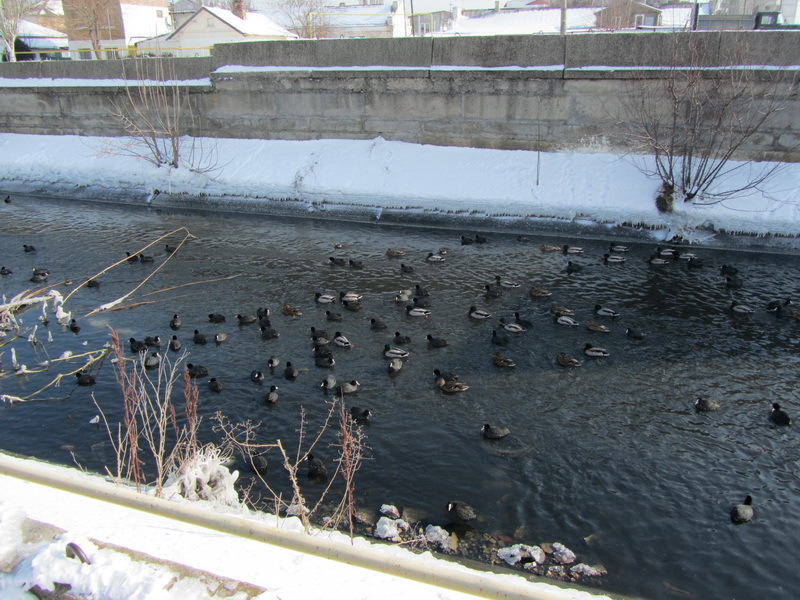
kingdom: Animalia
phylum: Chordata
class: Aves
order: Anseriformes
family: Anatidae
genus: Anas
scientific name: Anas platyrhynchos
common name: Mallard
